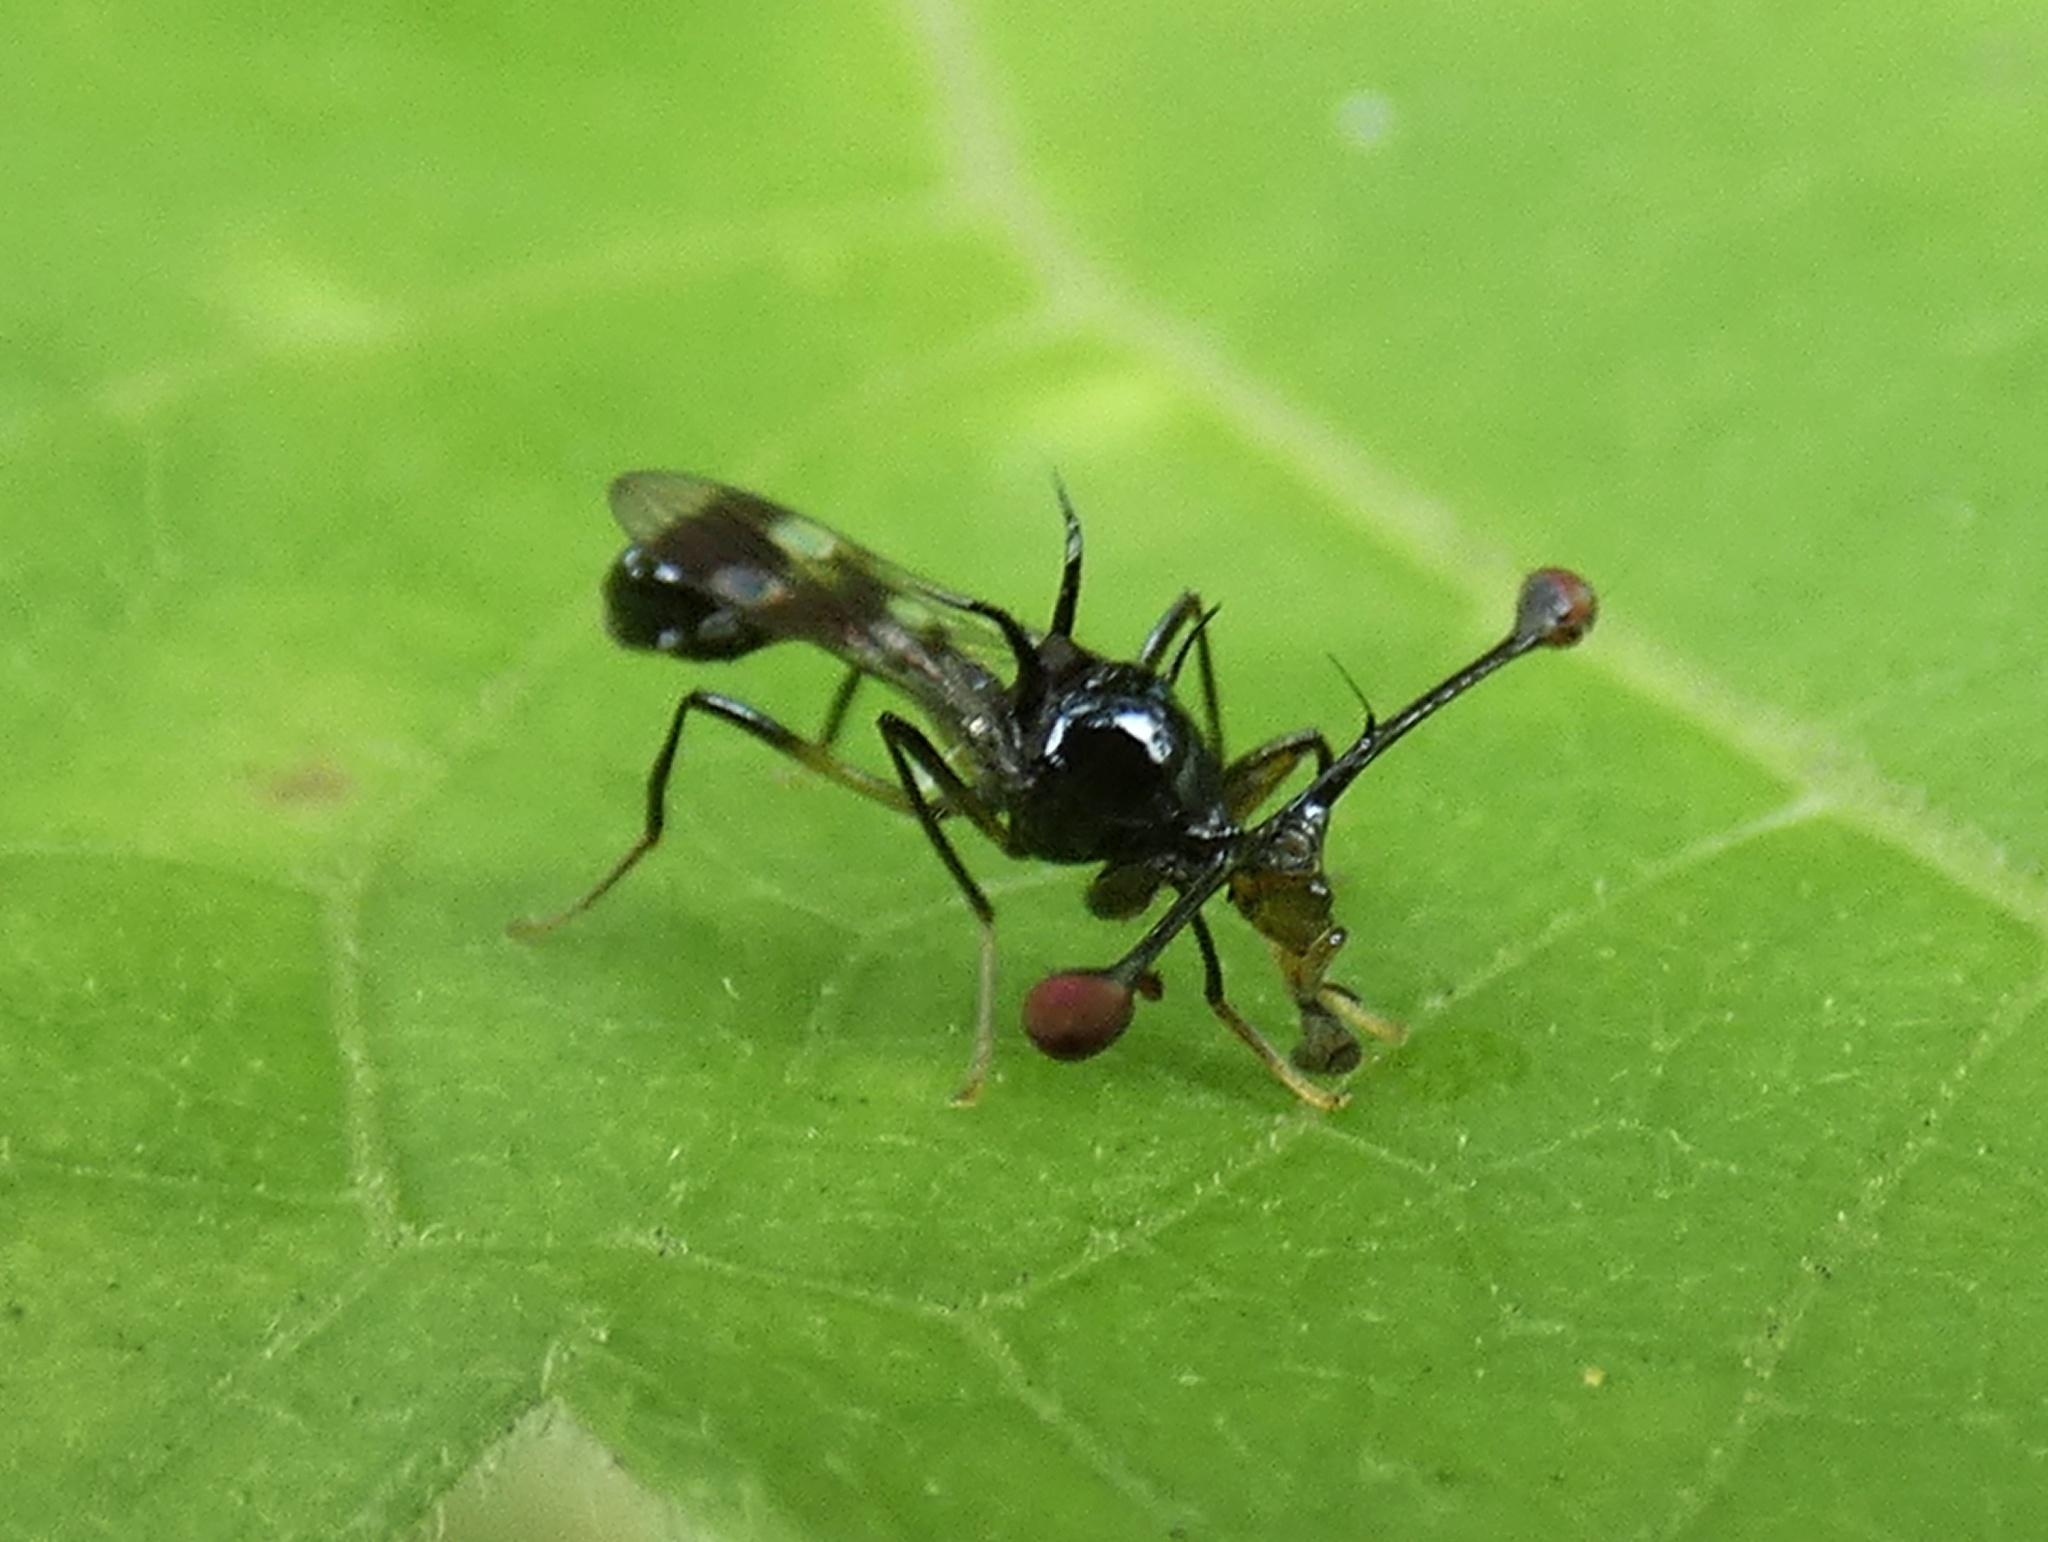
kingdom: Animalia
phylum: Arthropoda
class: Insecta
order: Diptera
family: Diopsidae
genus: Teleopsis
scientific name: Teleopsis nitidiscutum
